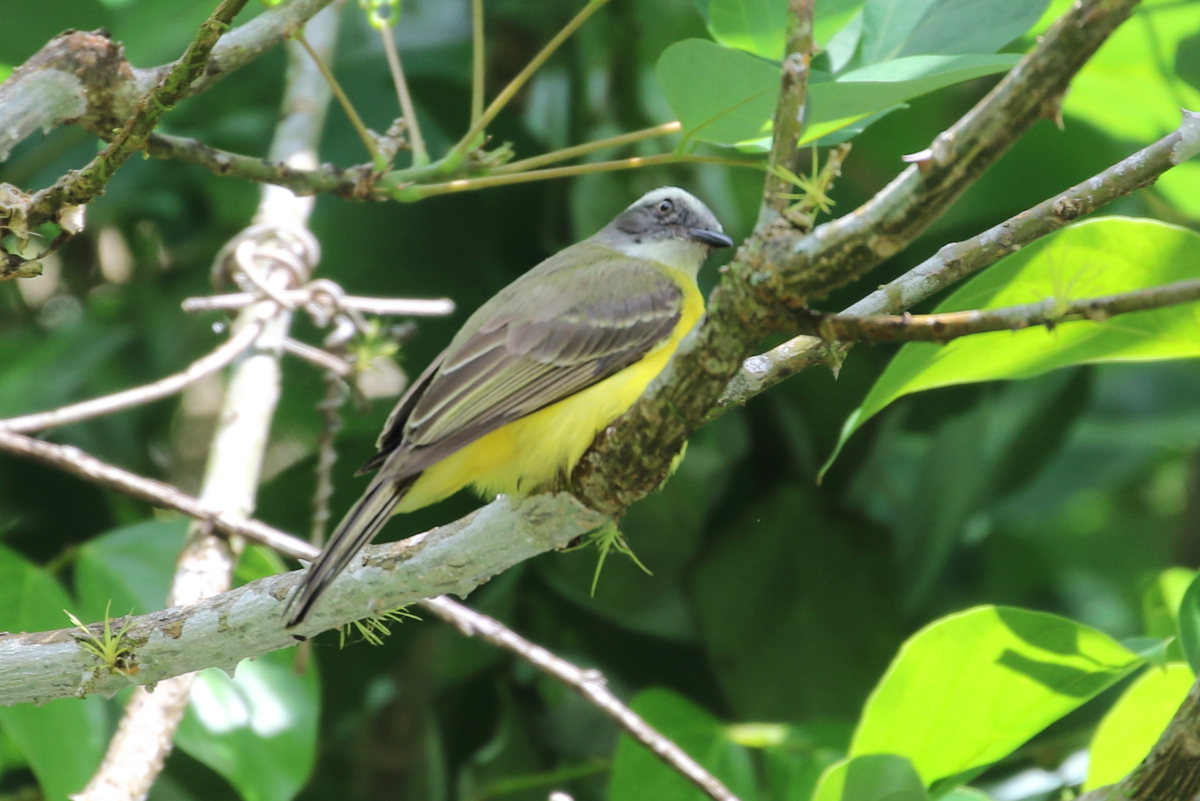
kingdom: Animalia
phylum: Chordata
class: Aves
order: Passeriformes
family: Tyrannidae
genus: Myiozetetes
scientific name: Myiozetetes similis
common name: Social flycatcher
